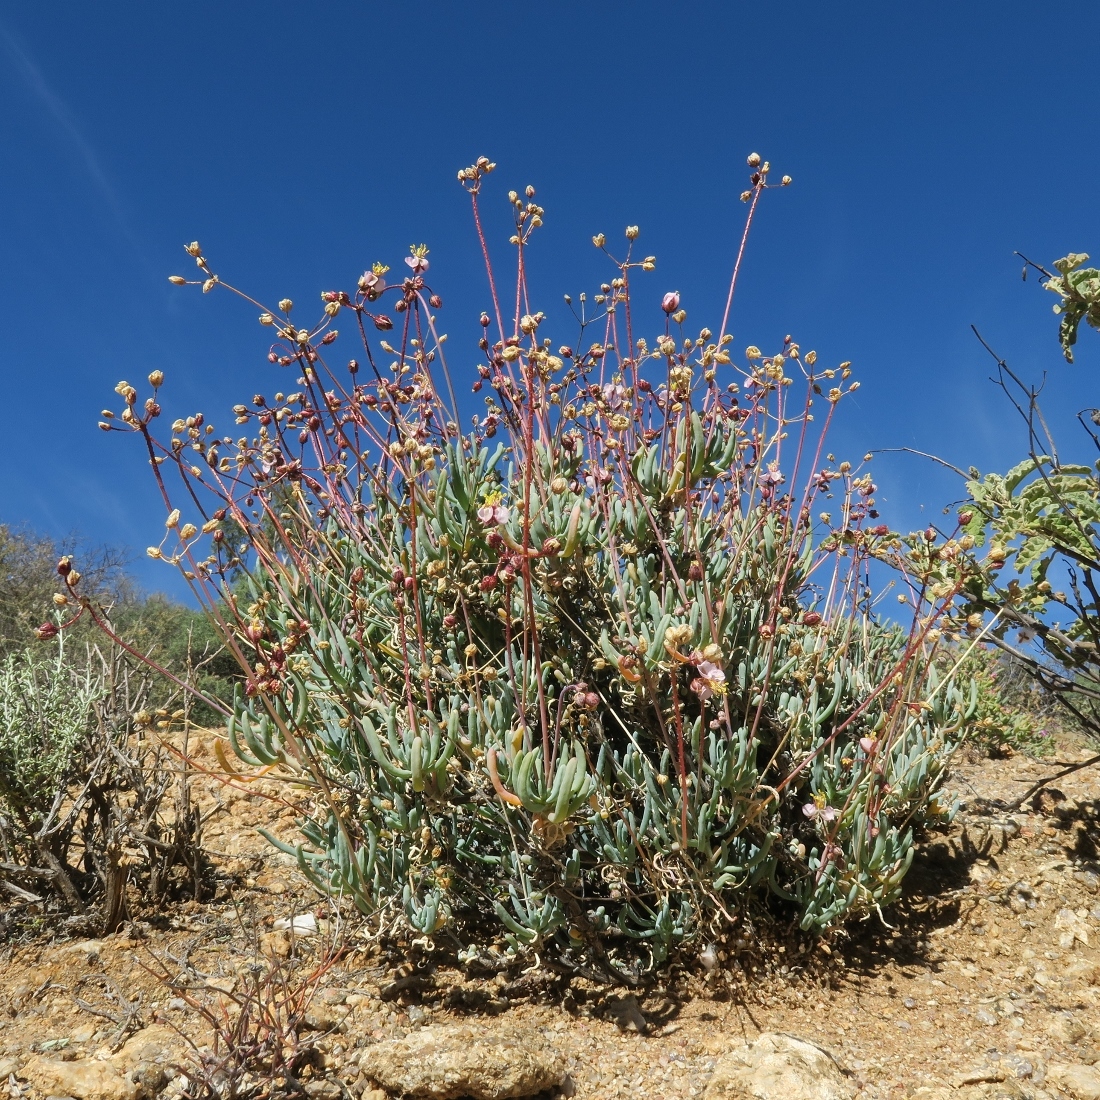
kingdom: Plantae
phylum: Tracheophyta
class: Magnoliopsida
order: Caryophyllales
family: Kewaceae
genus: Kewa
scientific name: Kewa salsoloides
